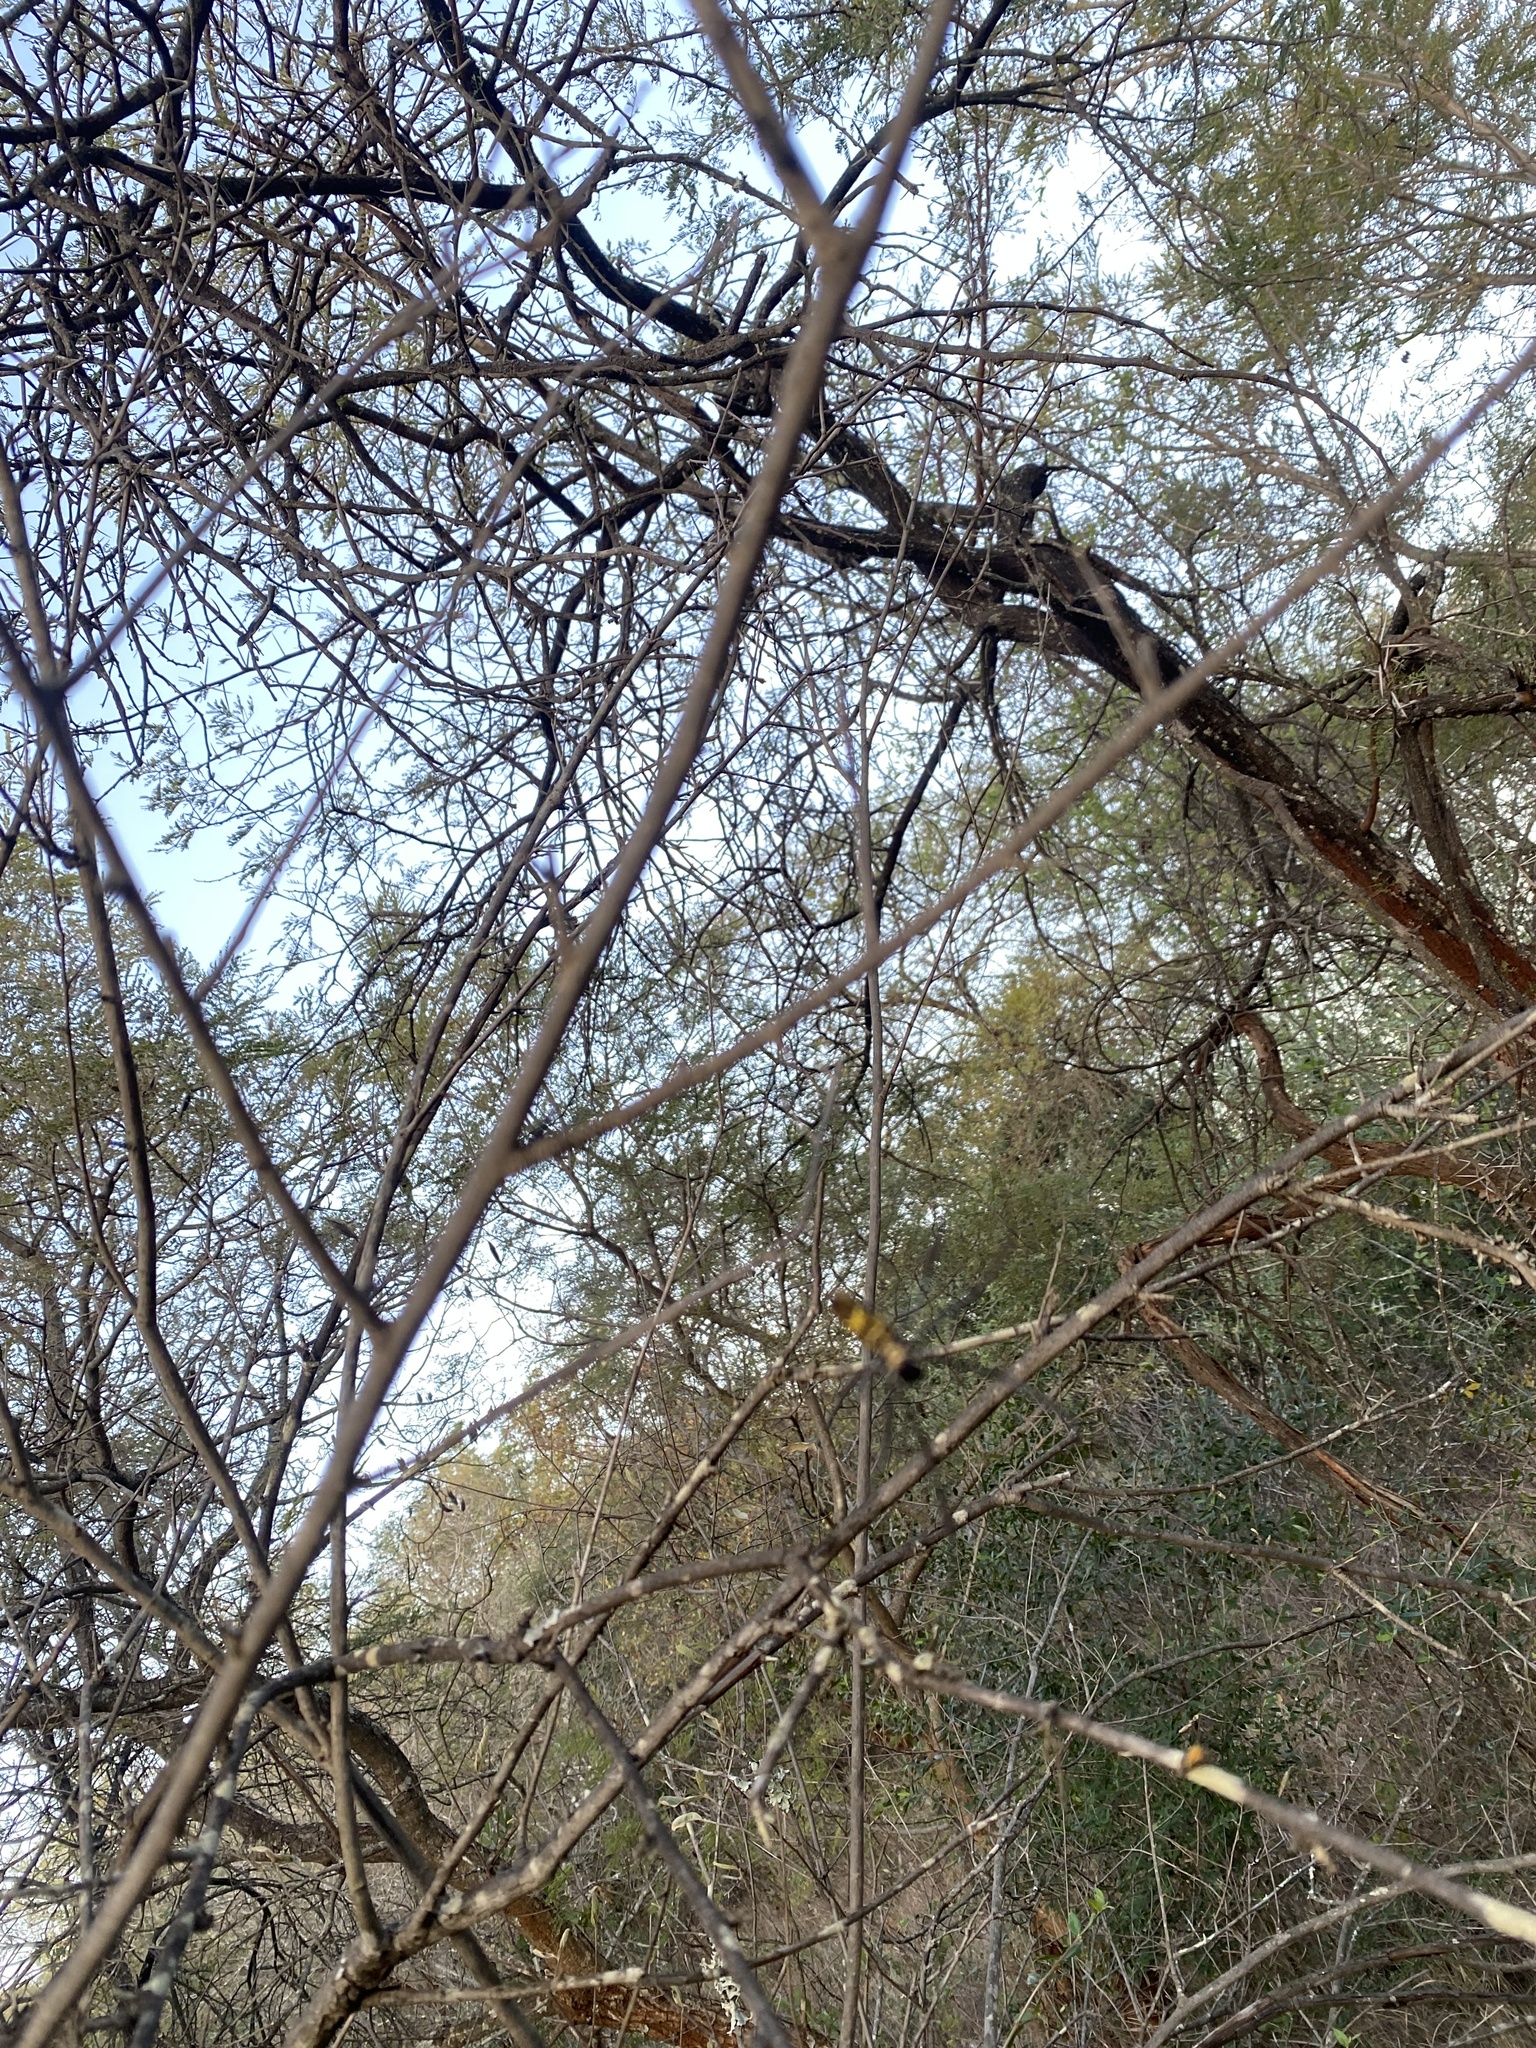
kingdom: Animalia
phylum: Arthropoda
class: Arachnida
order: Araneae
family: Araneidae
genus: Trichonephila
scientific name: Trichonephila fenestrata
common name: Hairy golden orb weaver
